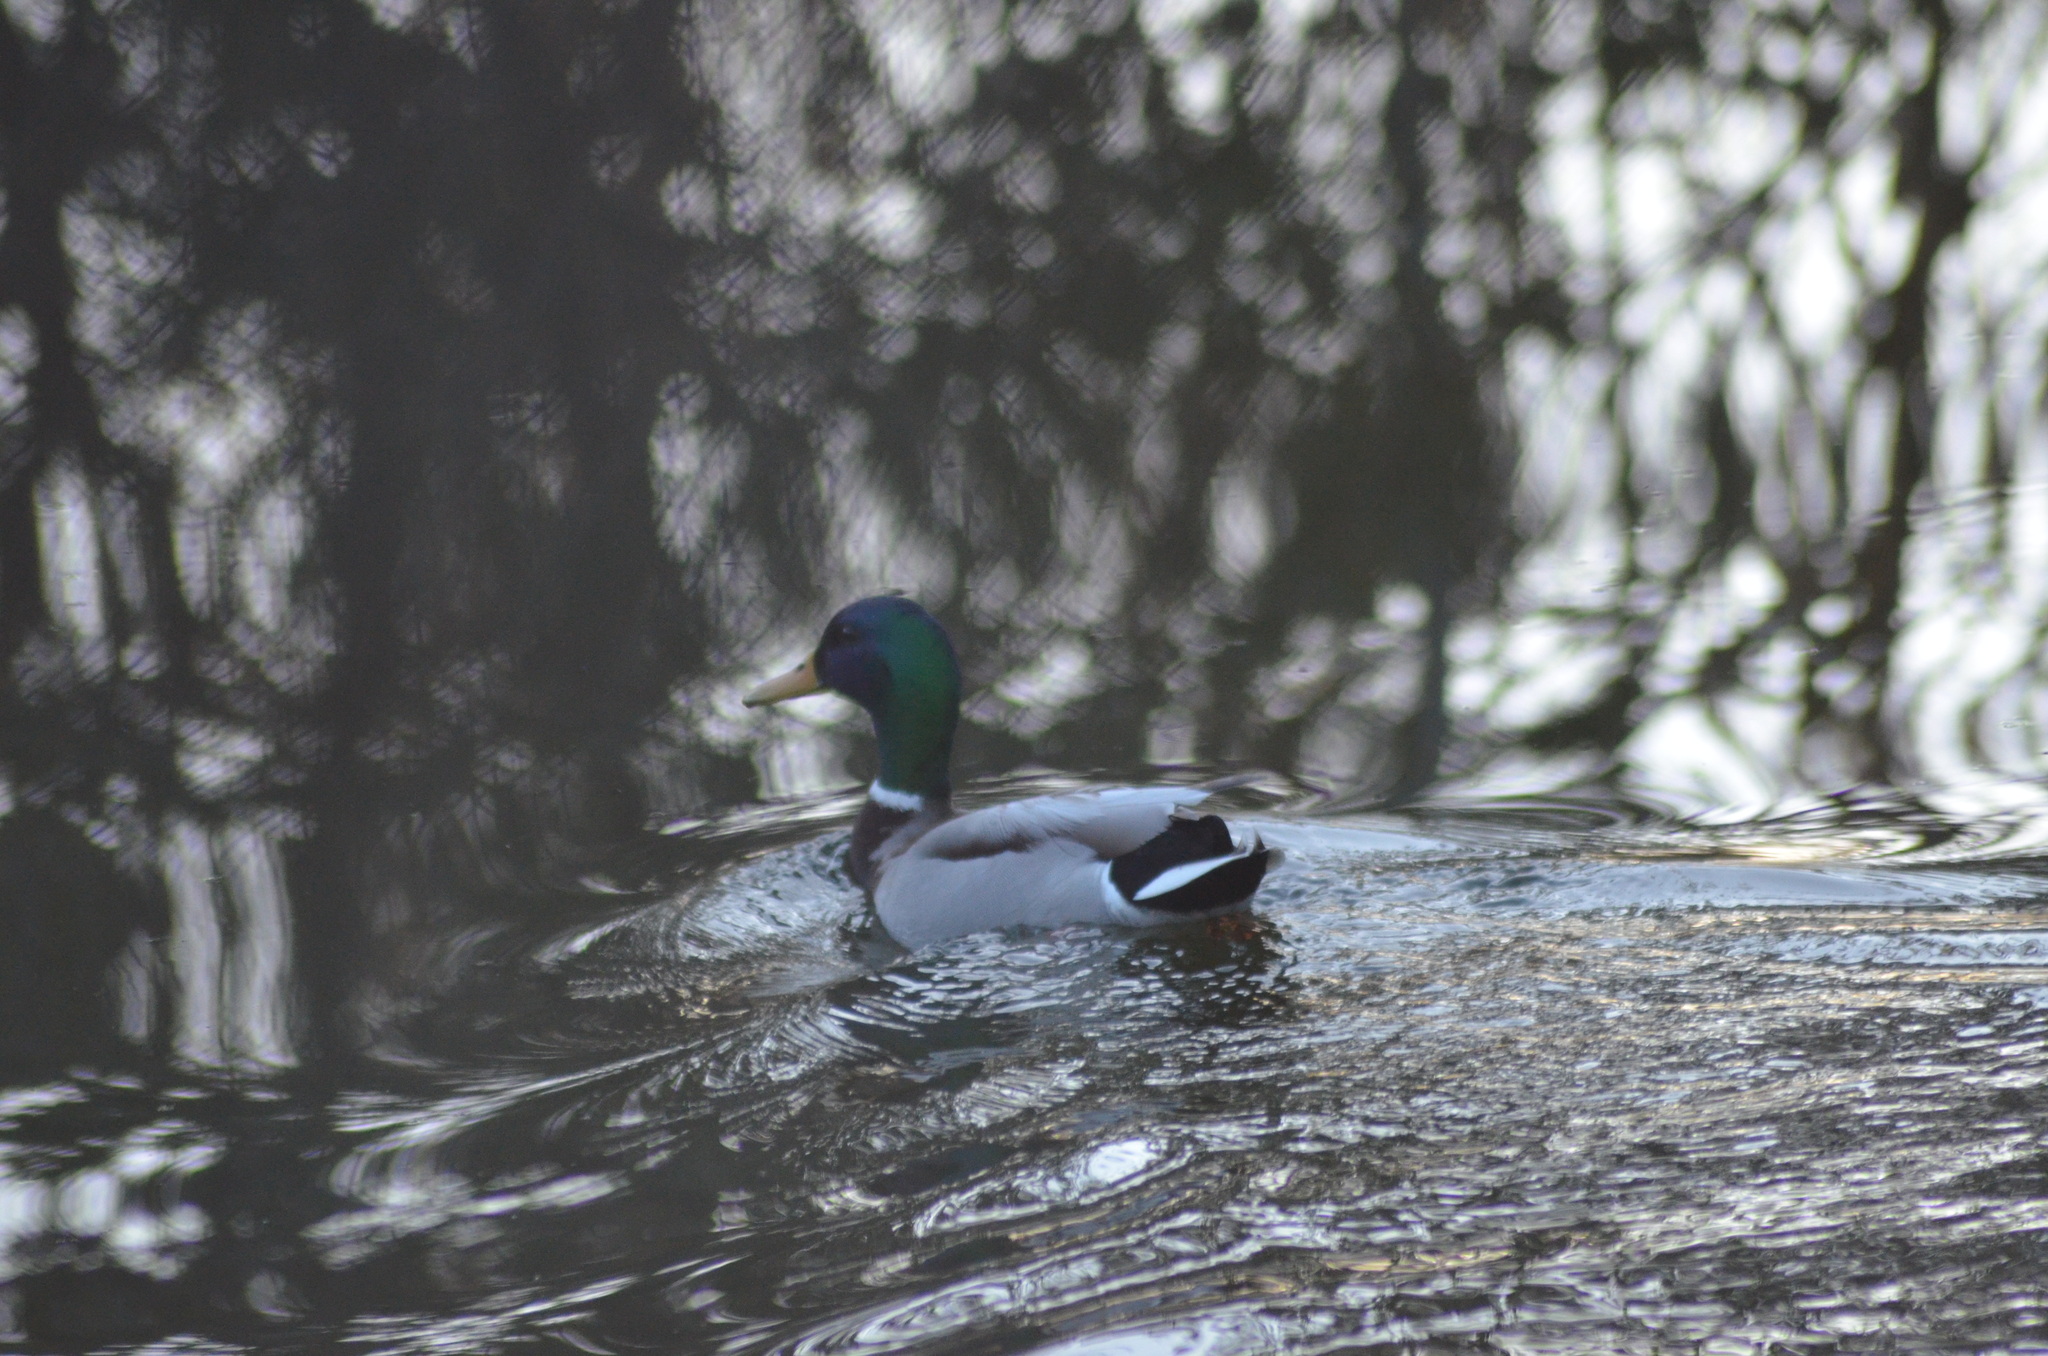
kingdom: Animalia
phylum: Chordata
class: Aves
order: Anseriformes
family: Anatidae
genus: Anas
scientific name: Anas platyrhynchos
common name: Mallard
